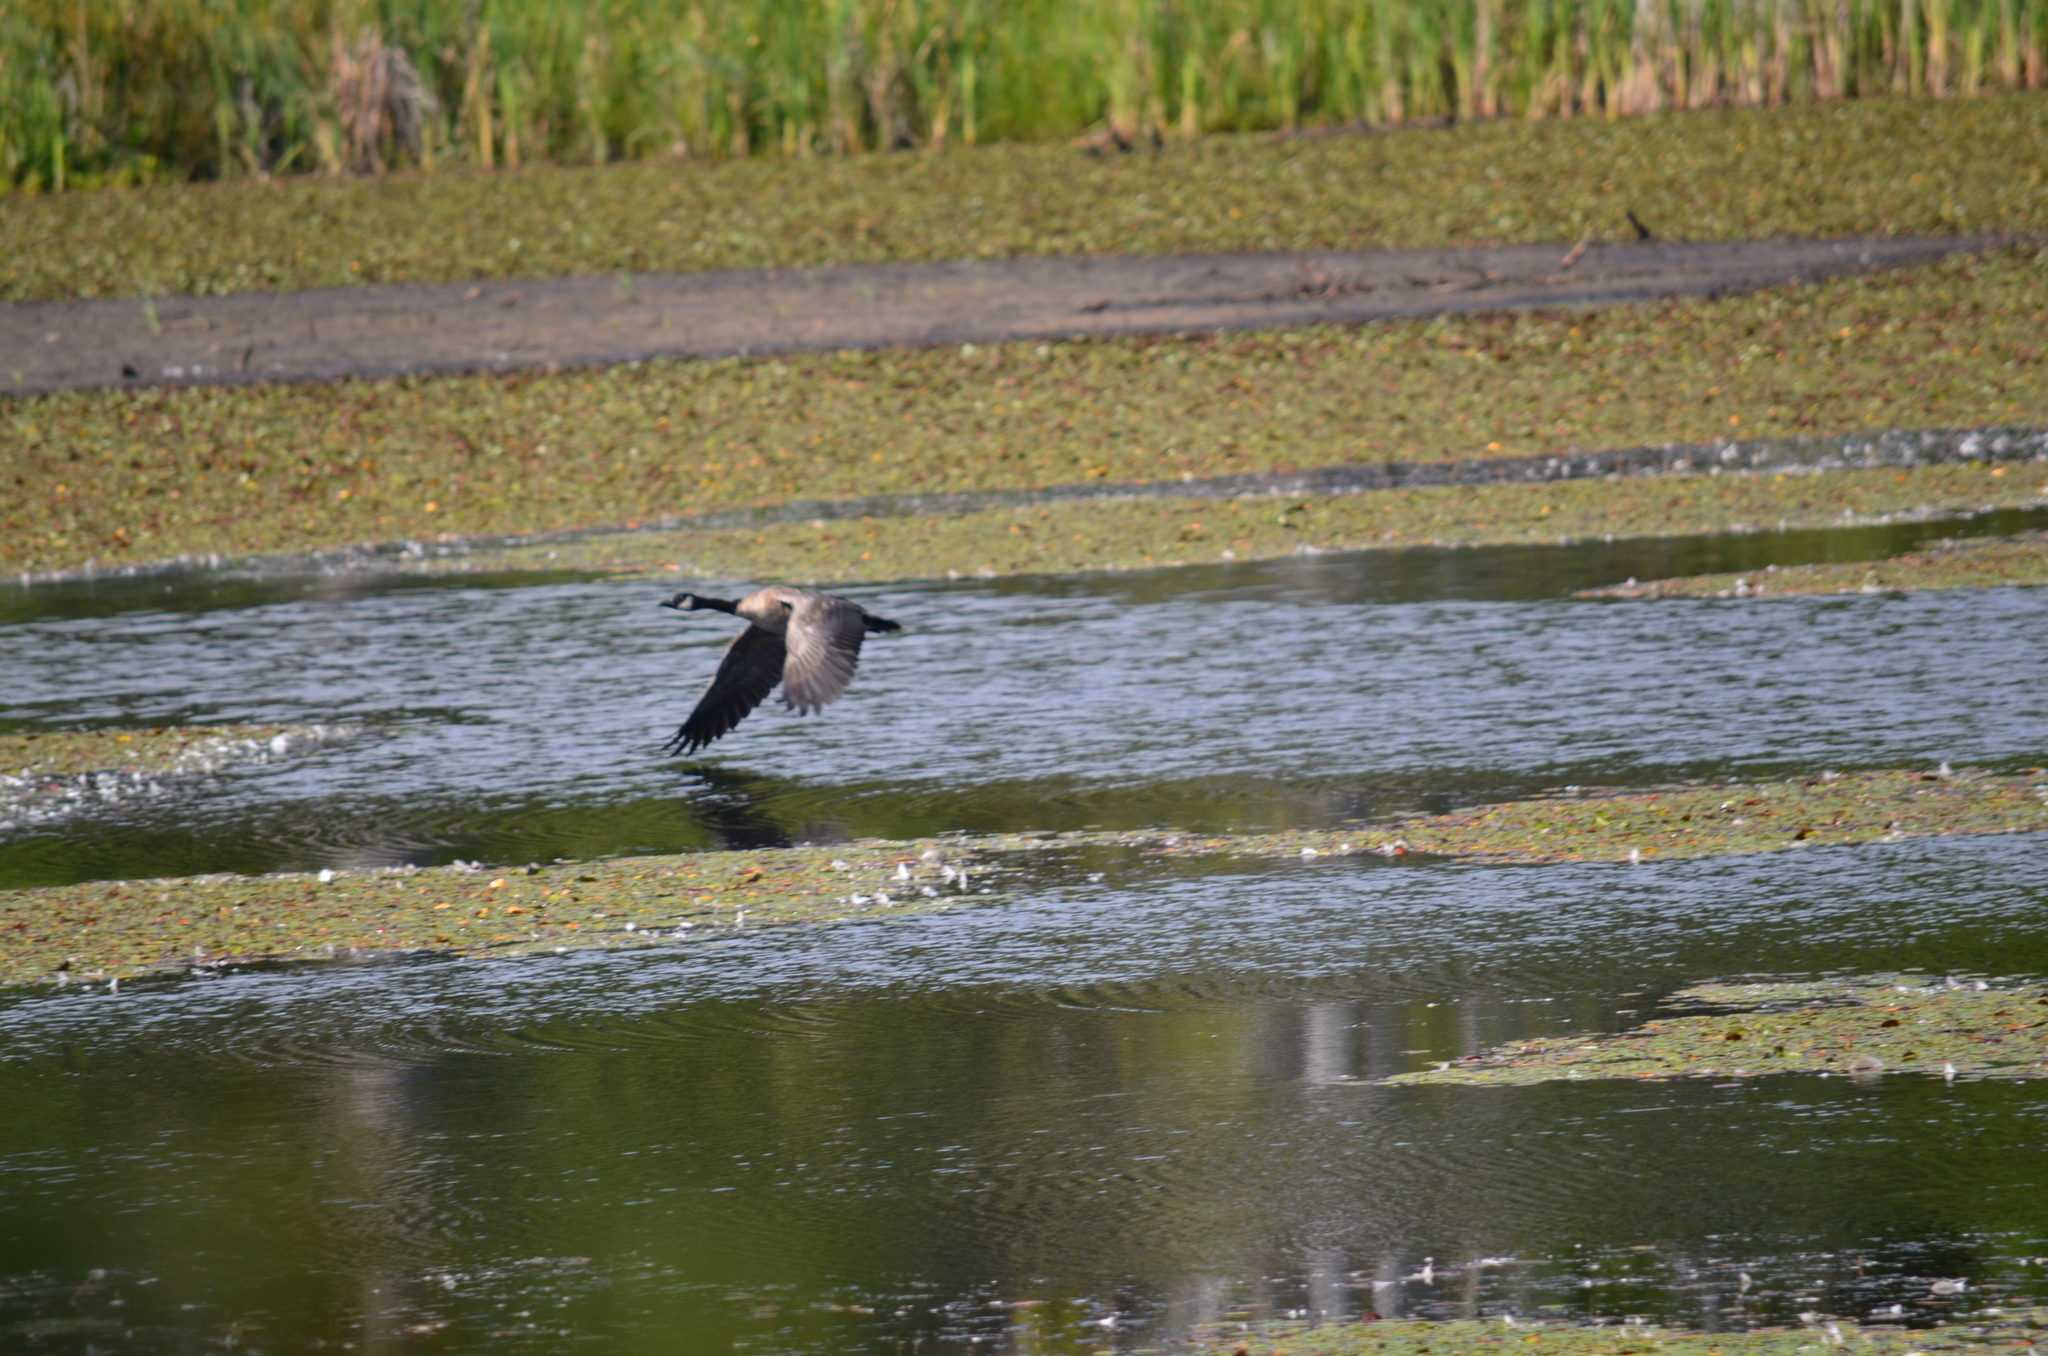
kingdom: Animalia
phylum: Chordata
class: Aves
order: Anseriformes
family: Anatidae
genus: Branta
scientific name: Branta canadensis
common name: Canada goose
